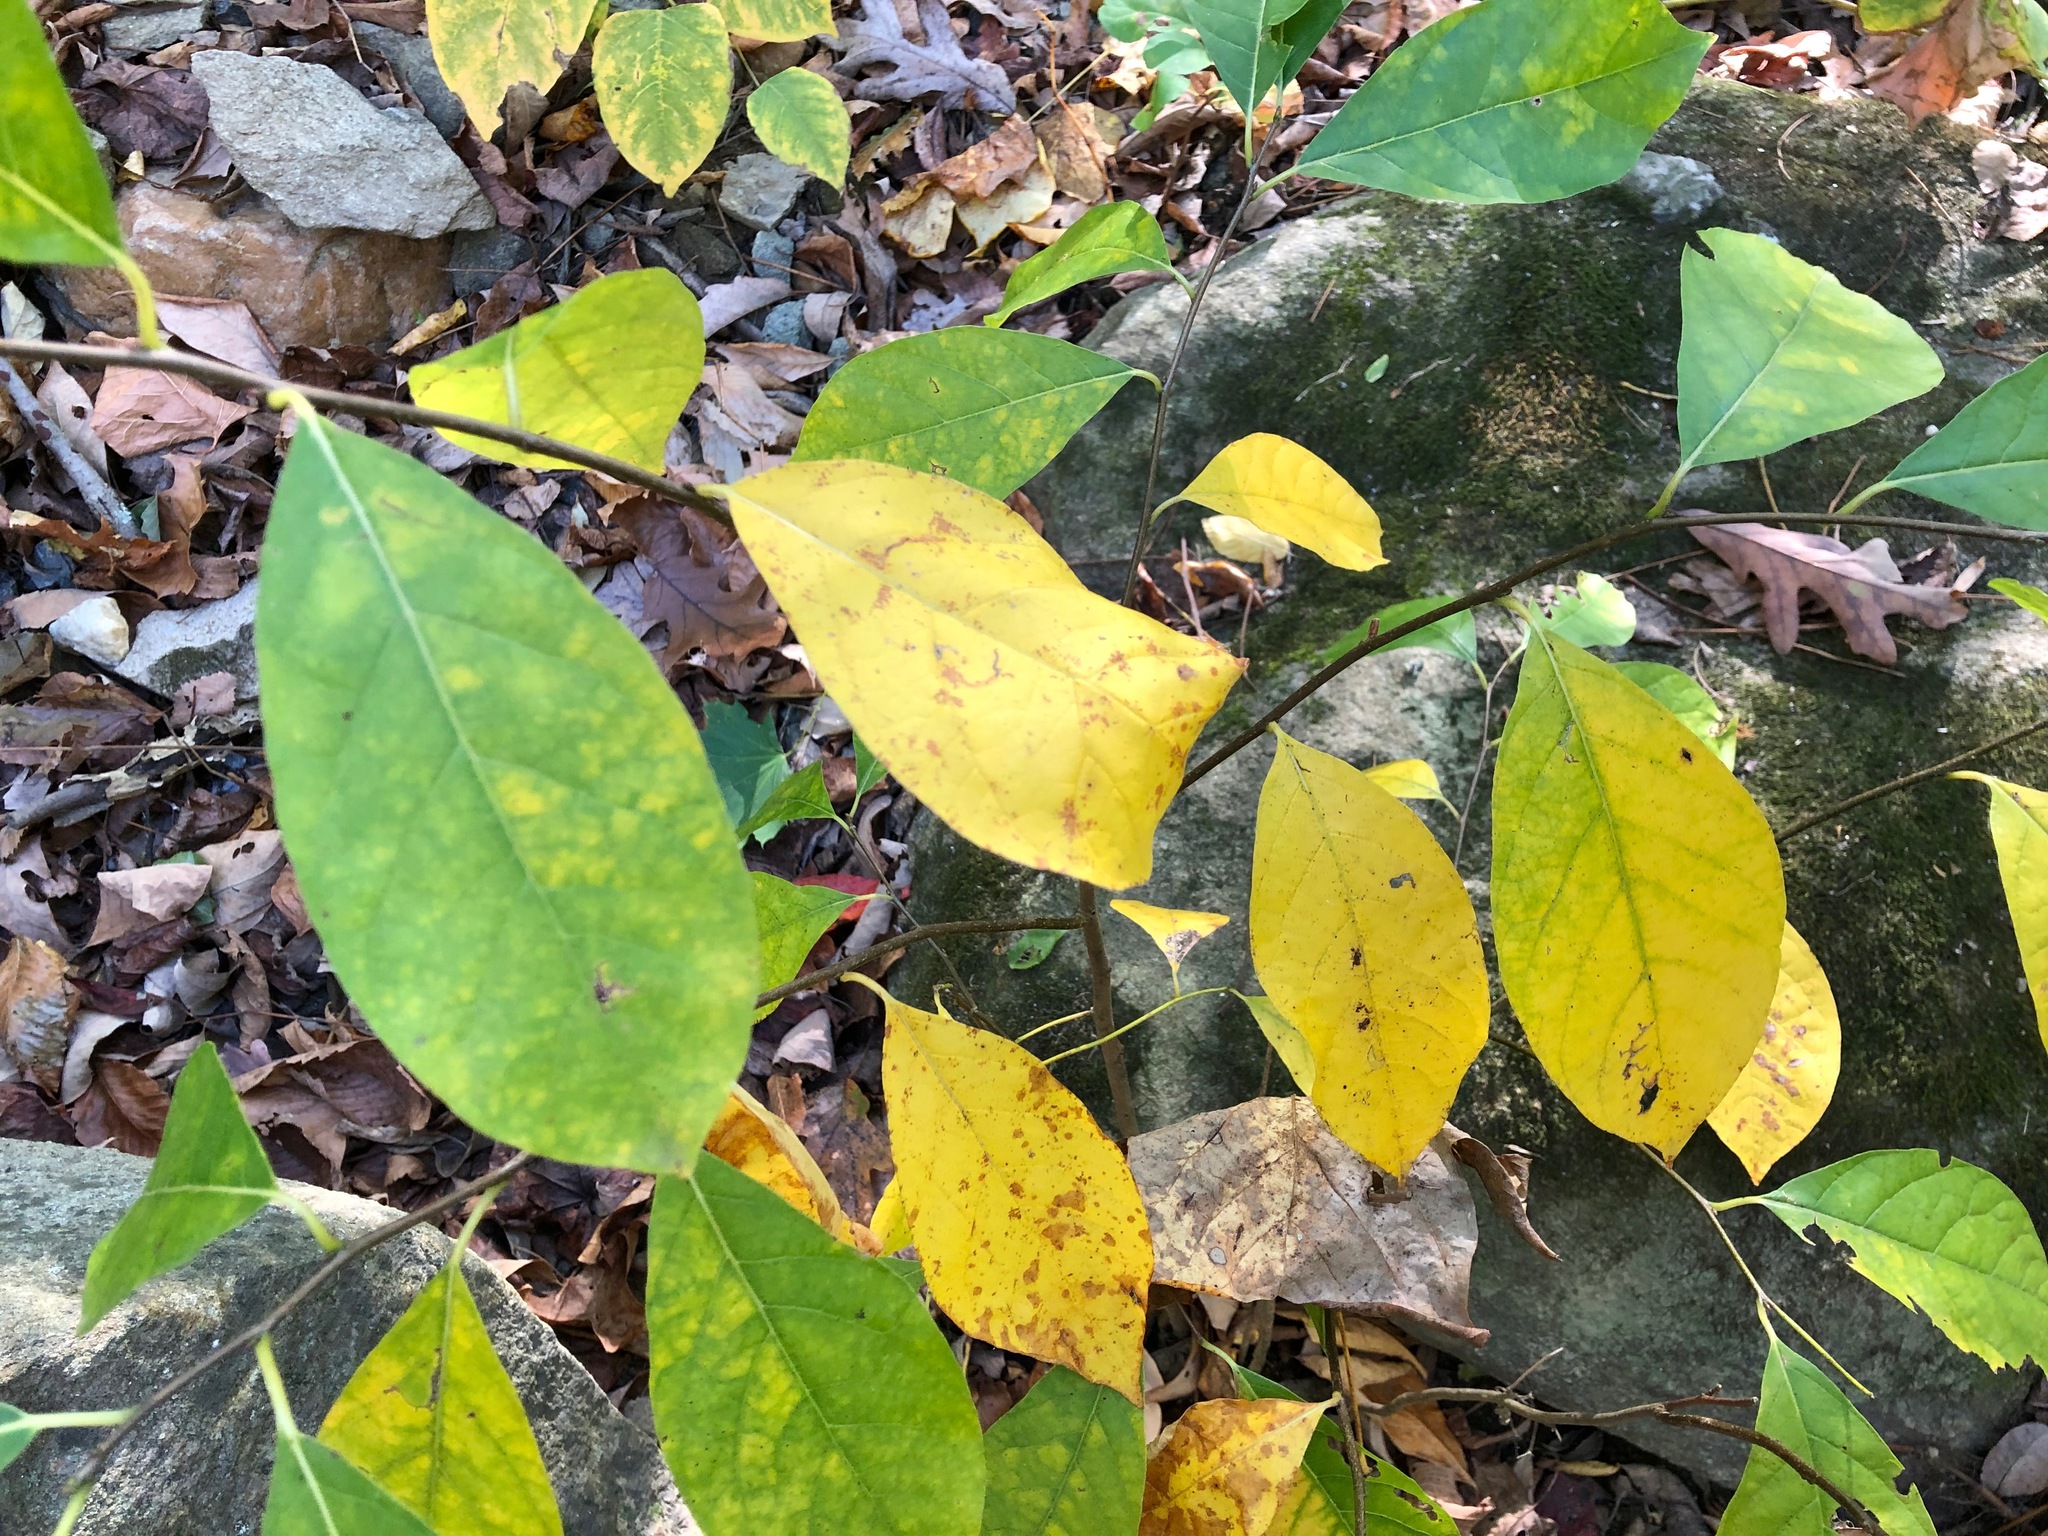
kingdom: Plantae
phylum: Tracheophyta
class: Magnoliopsida
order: Laurales
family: Lauraceae
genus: Lindera
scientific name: Lindera benzoin
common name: Spicebush
